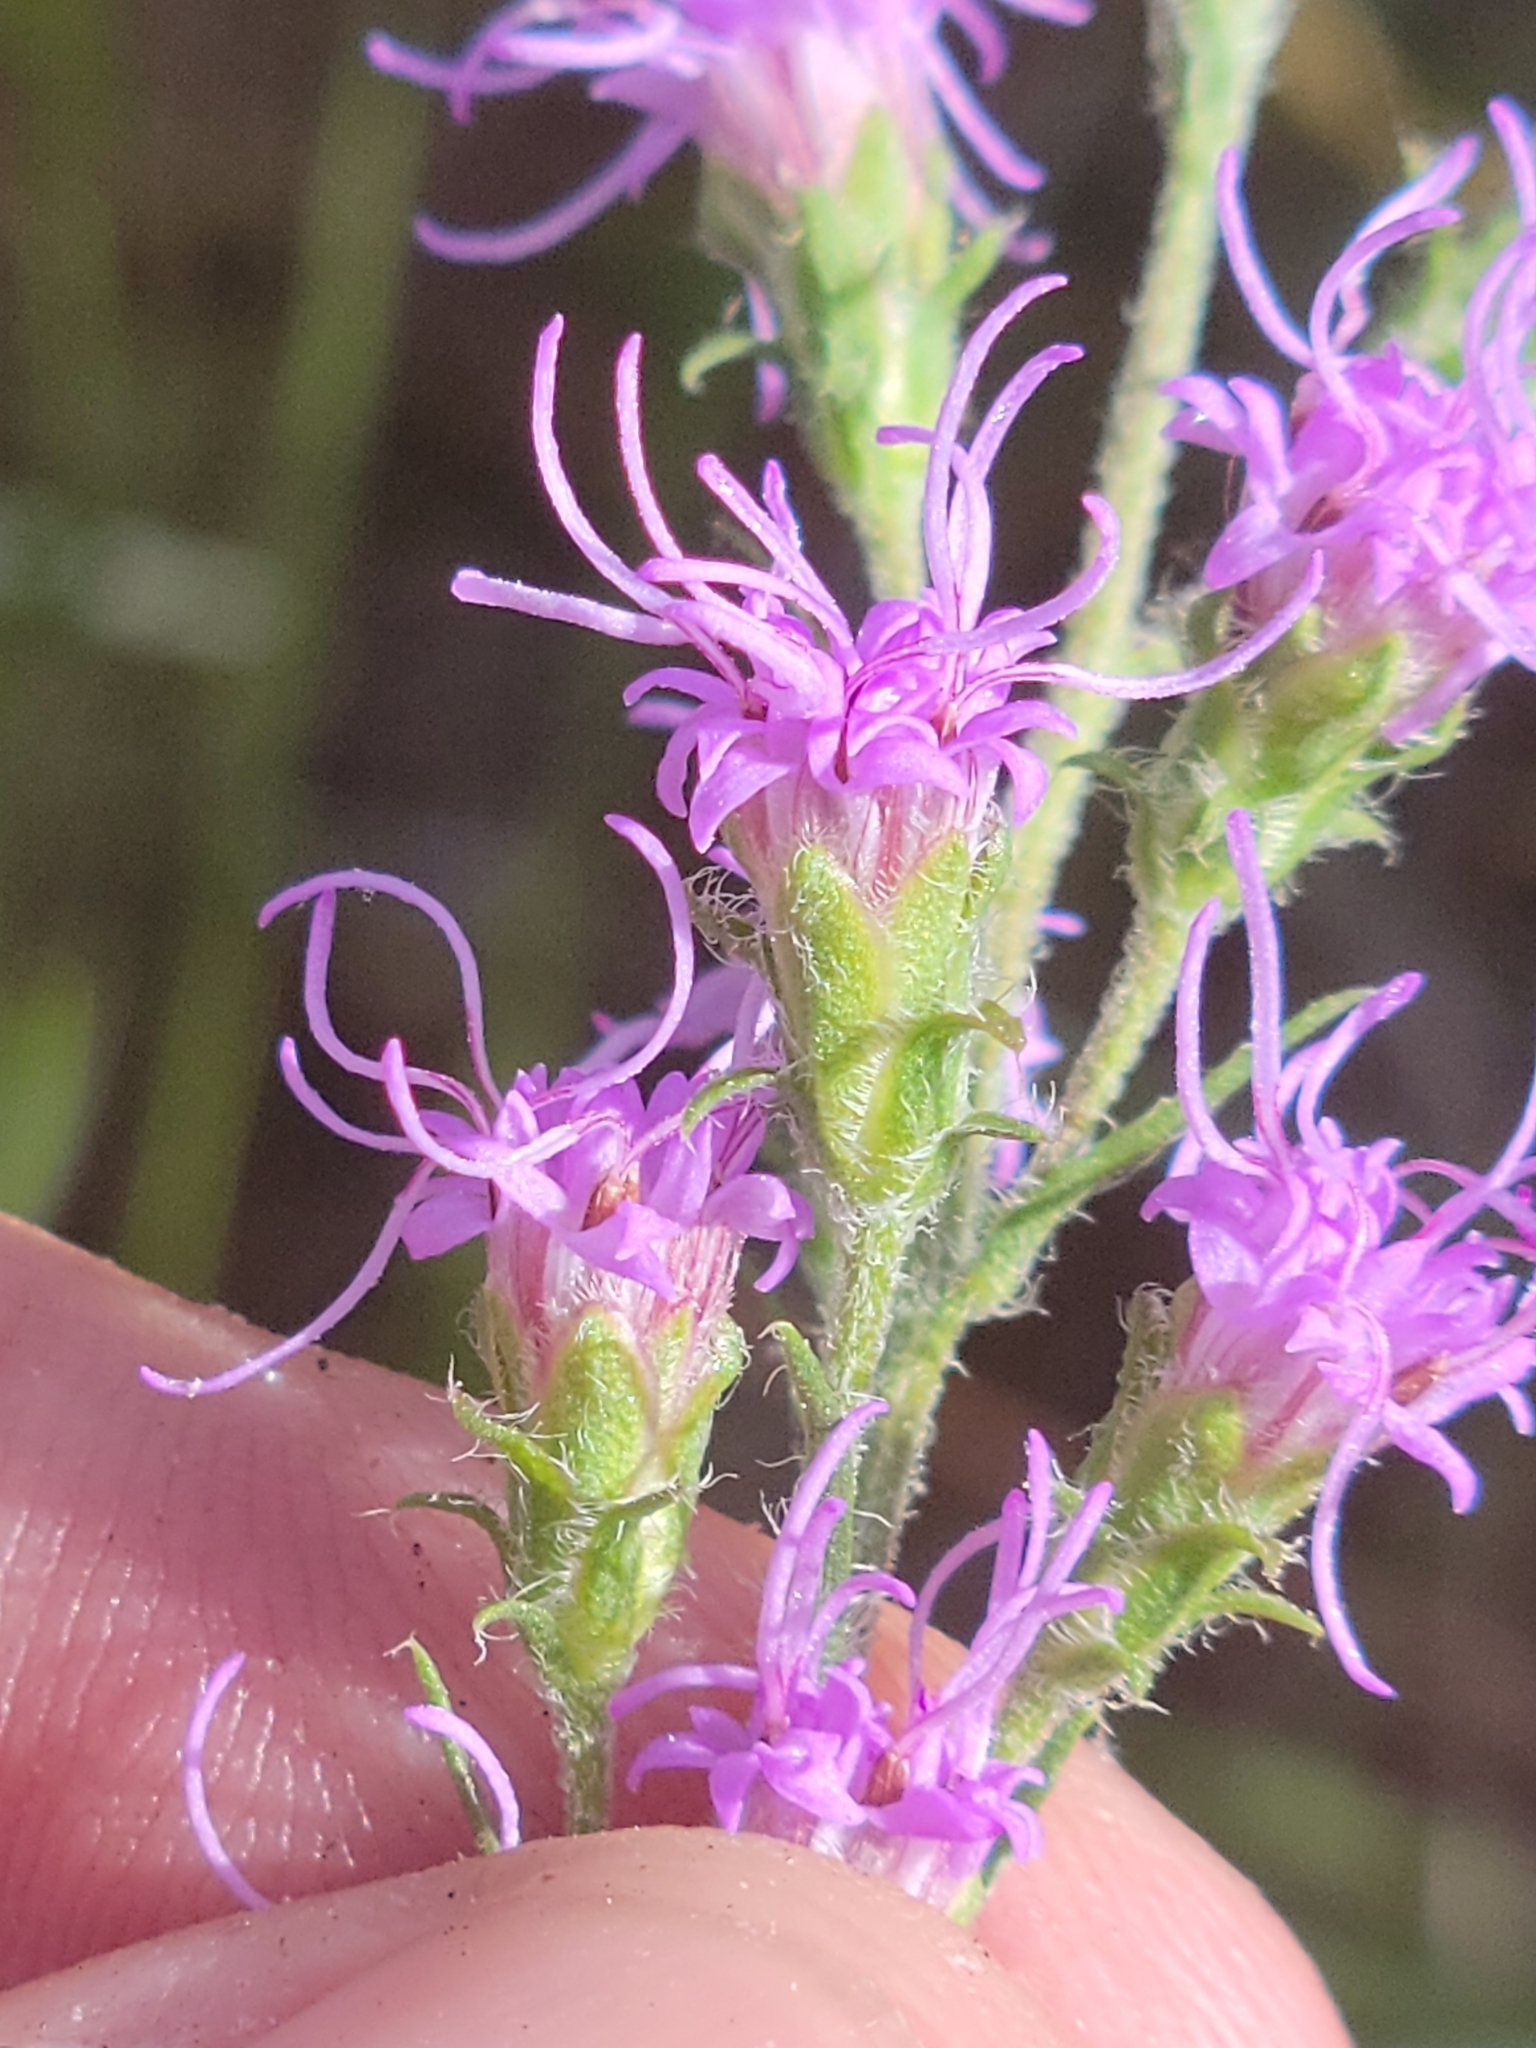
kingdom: Plantae
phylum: Tracheophyta
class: Magnoliopsida
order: Asterales
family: Asteraceae
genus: Liatris
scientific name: Liatris gracilis
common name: Slender gayfeather
